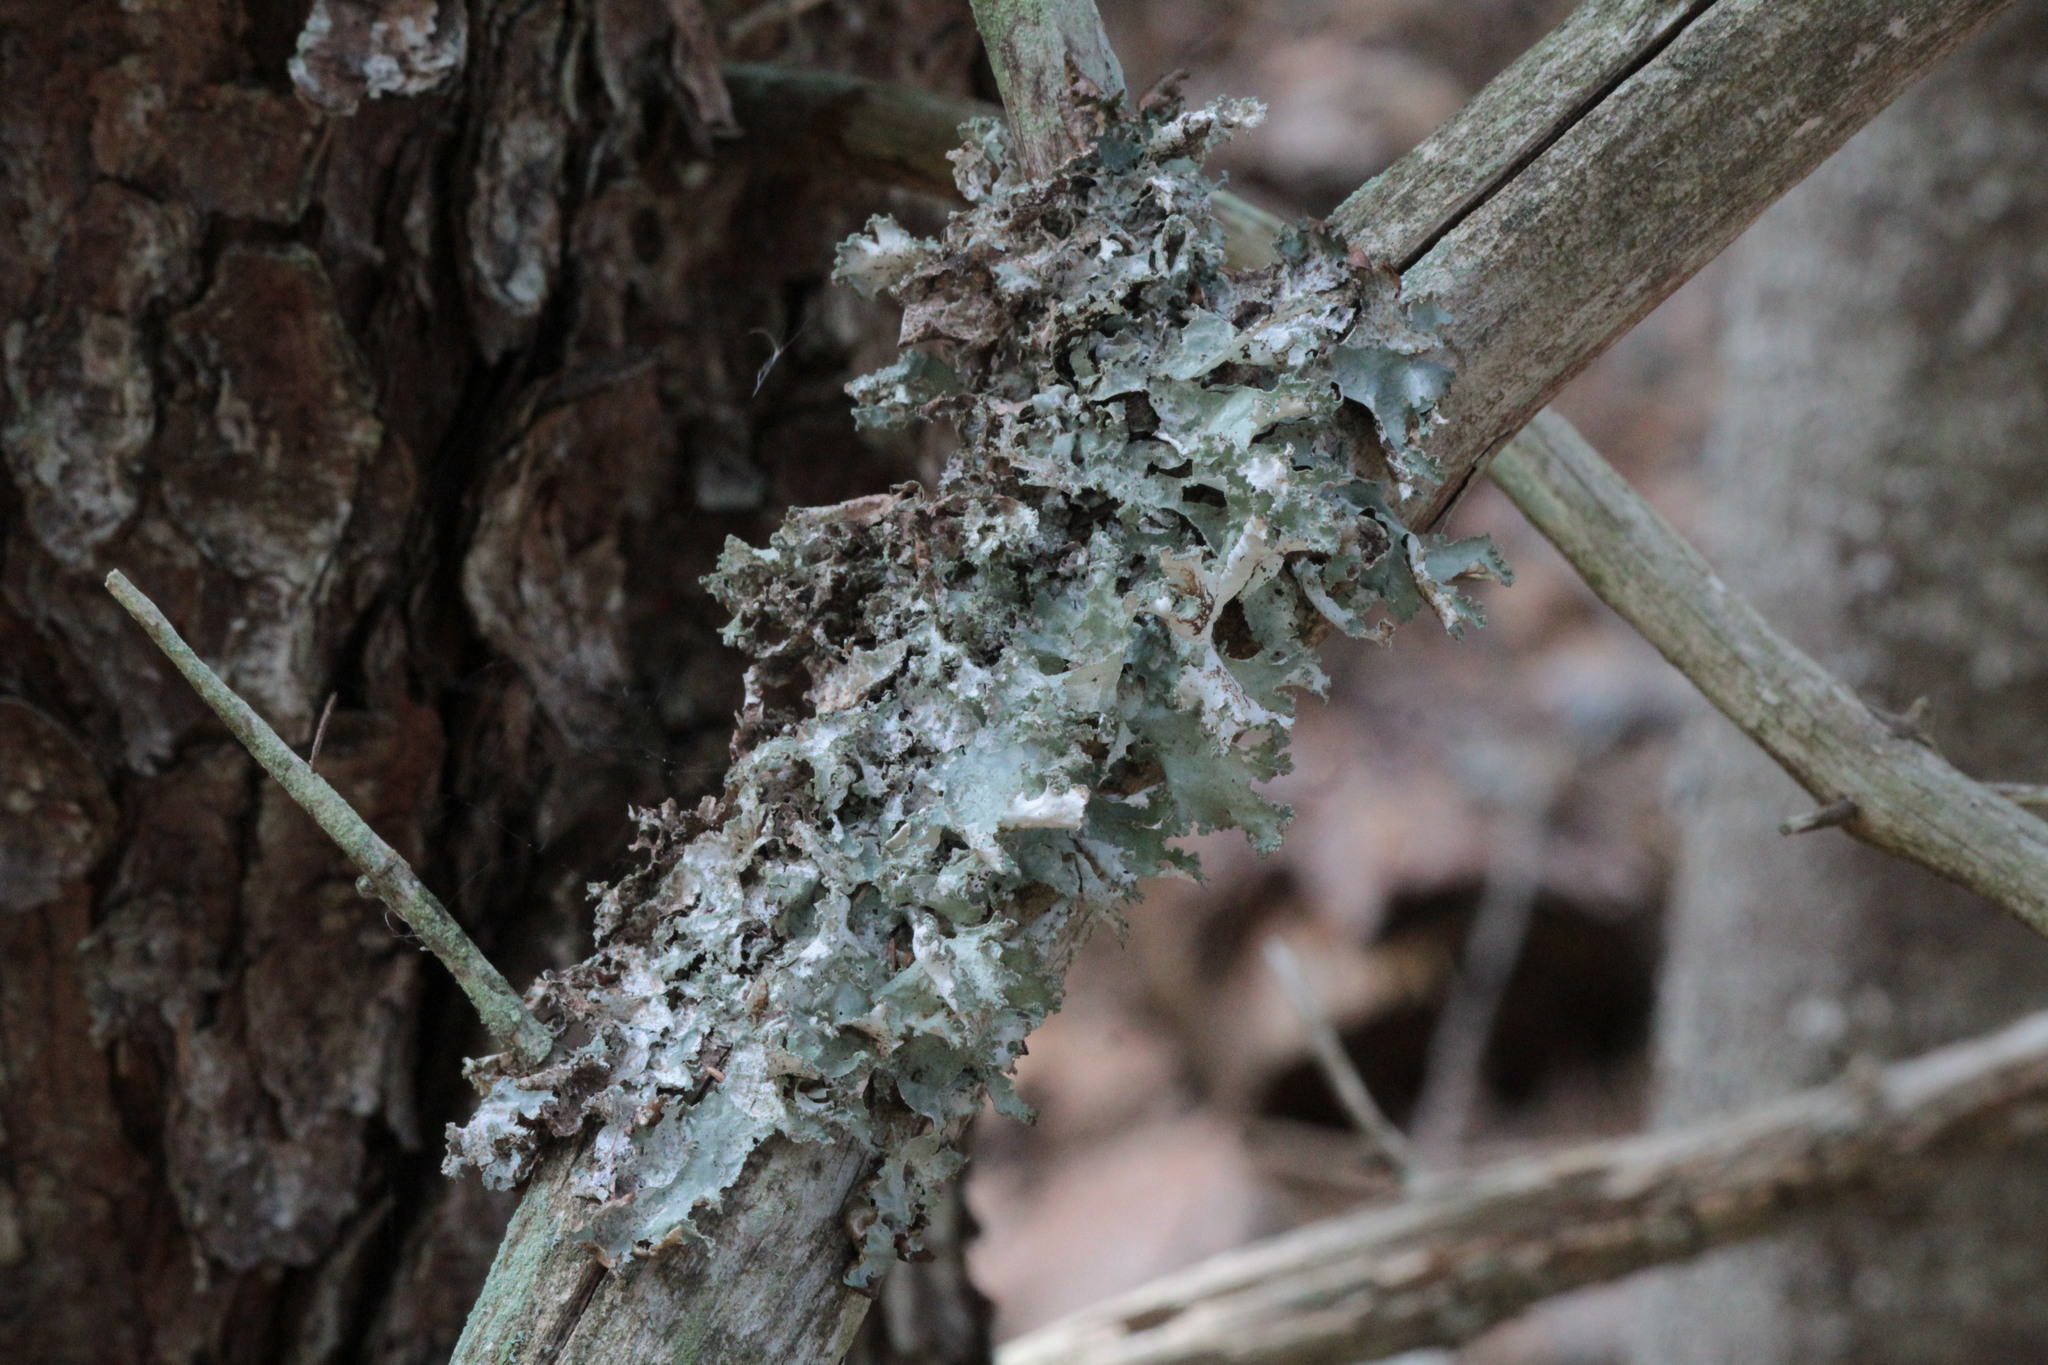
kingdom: Fungi
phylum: Ascomycota
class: Lecanoromycetes
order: Lecanorales
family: Parmeliaceae
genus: Platismatia
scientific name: Platismatia glauca
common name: Varied rag lichen
